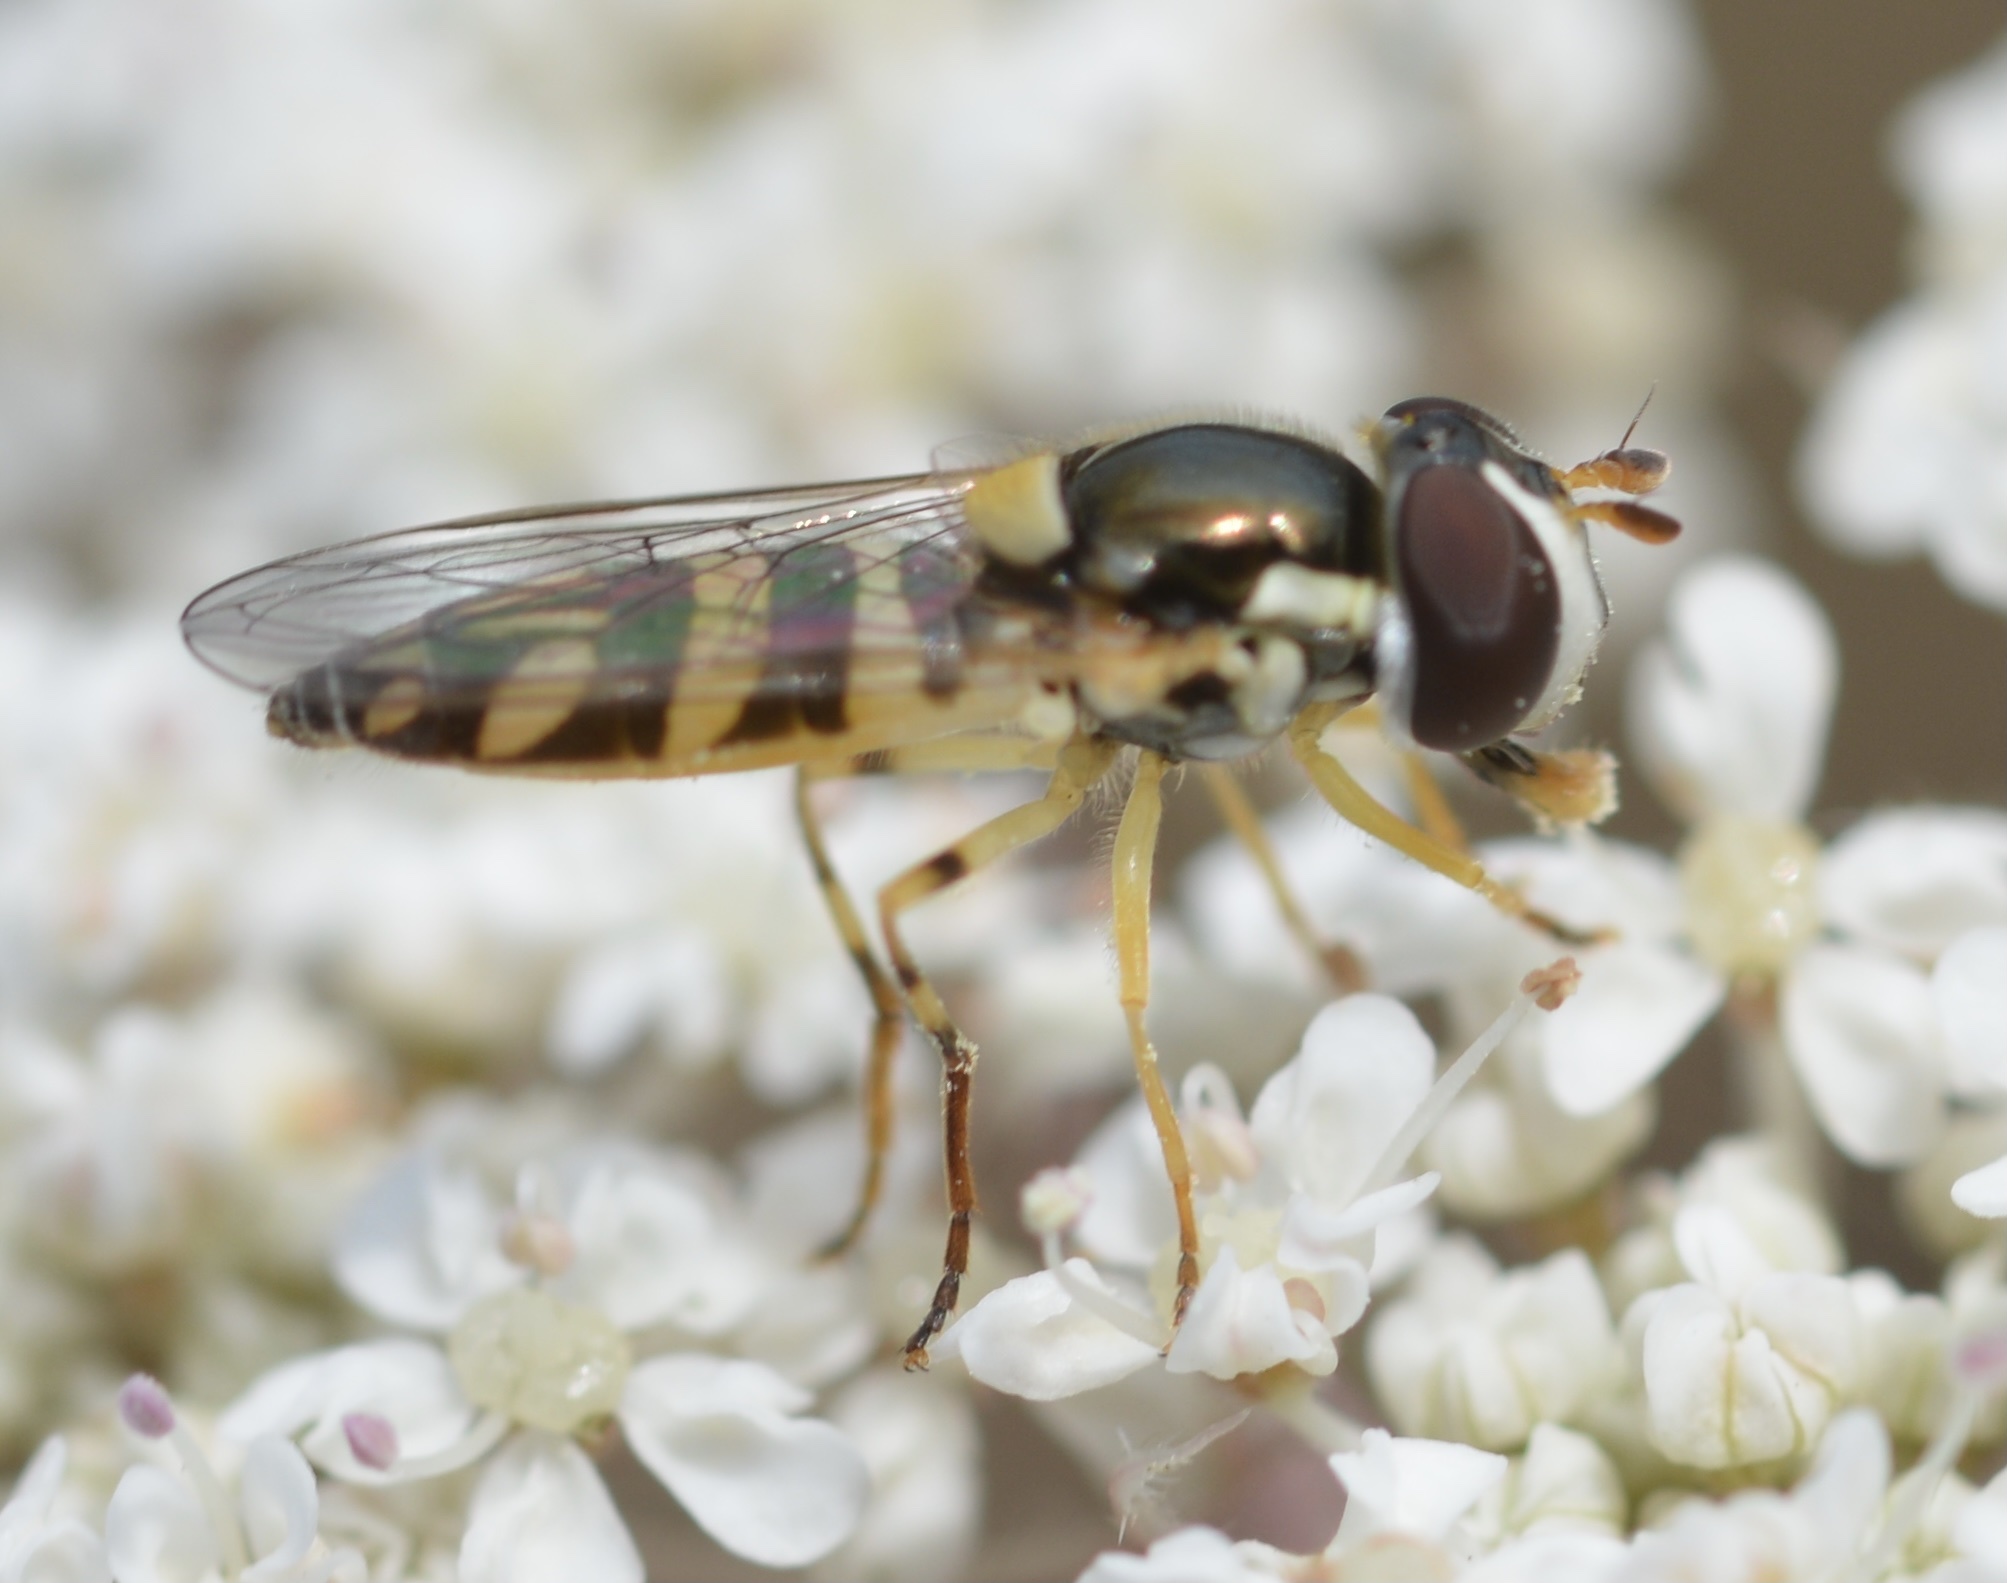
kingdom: Animalia
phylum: Arthropoda
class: Insecta
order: Diptera
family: Syrphidae
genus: Allograpta
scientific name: Allograpta exotica
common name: Syrphid fly
